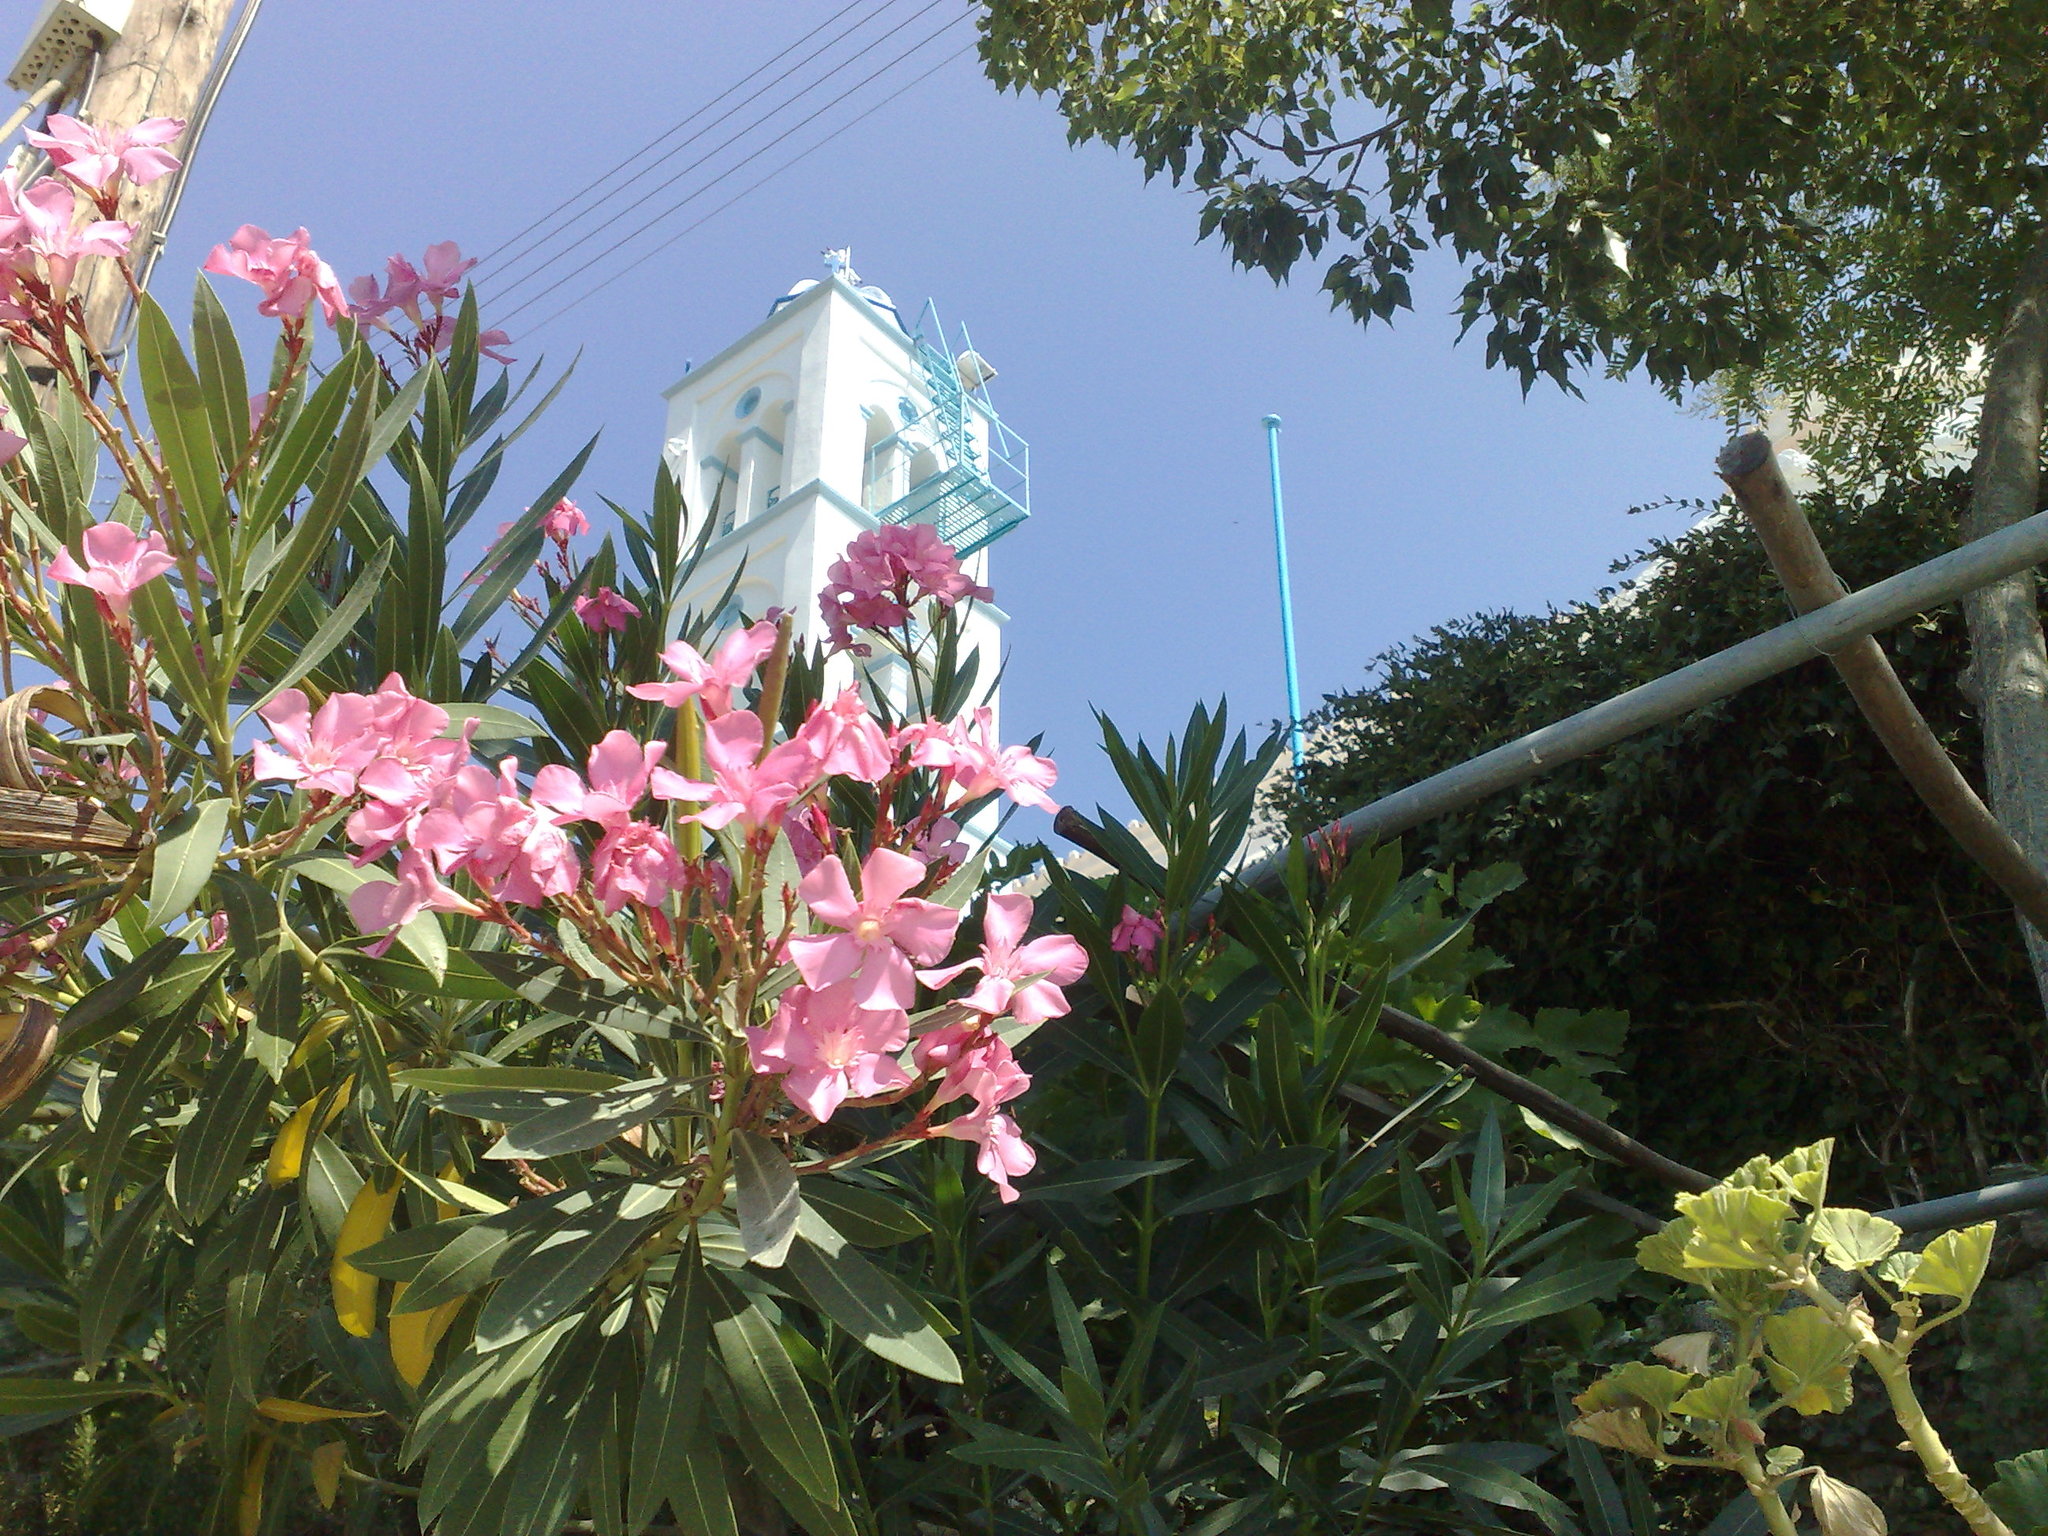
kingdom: Plantae
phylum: Tracheophyta
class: Magnoliopsida
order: Gentianales
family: Apocynaceae
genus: Nerium
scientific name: Nerium oleander
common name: Oleander
